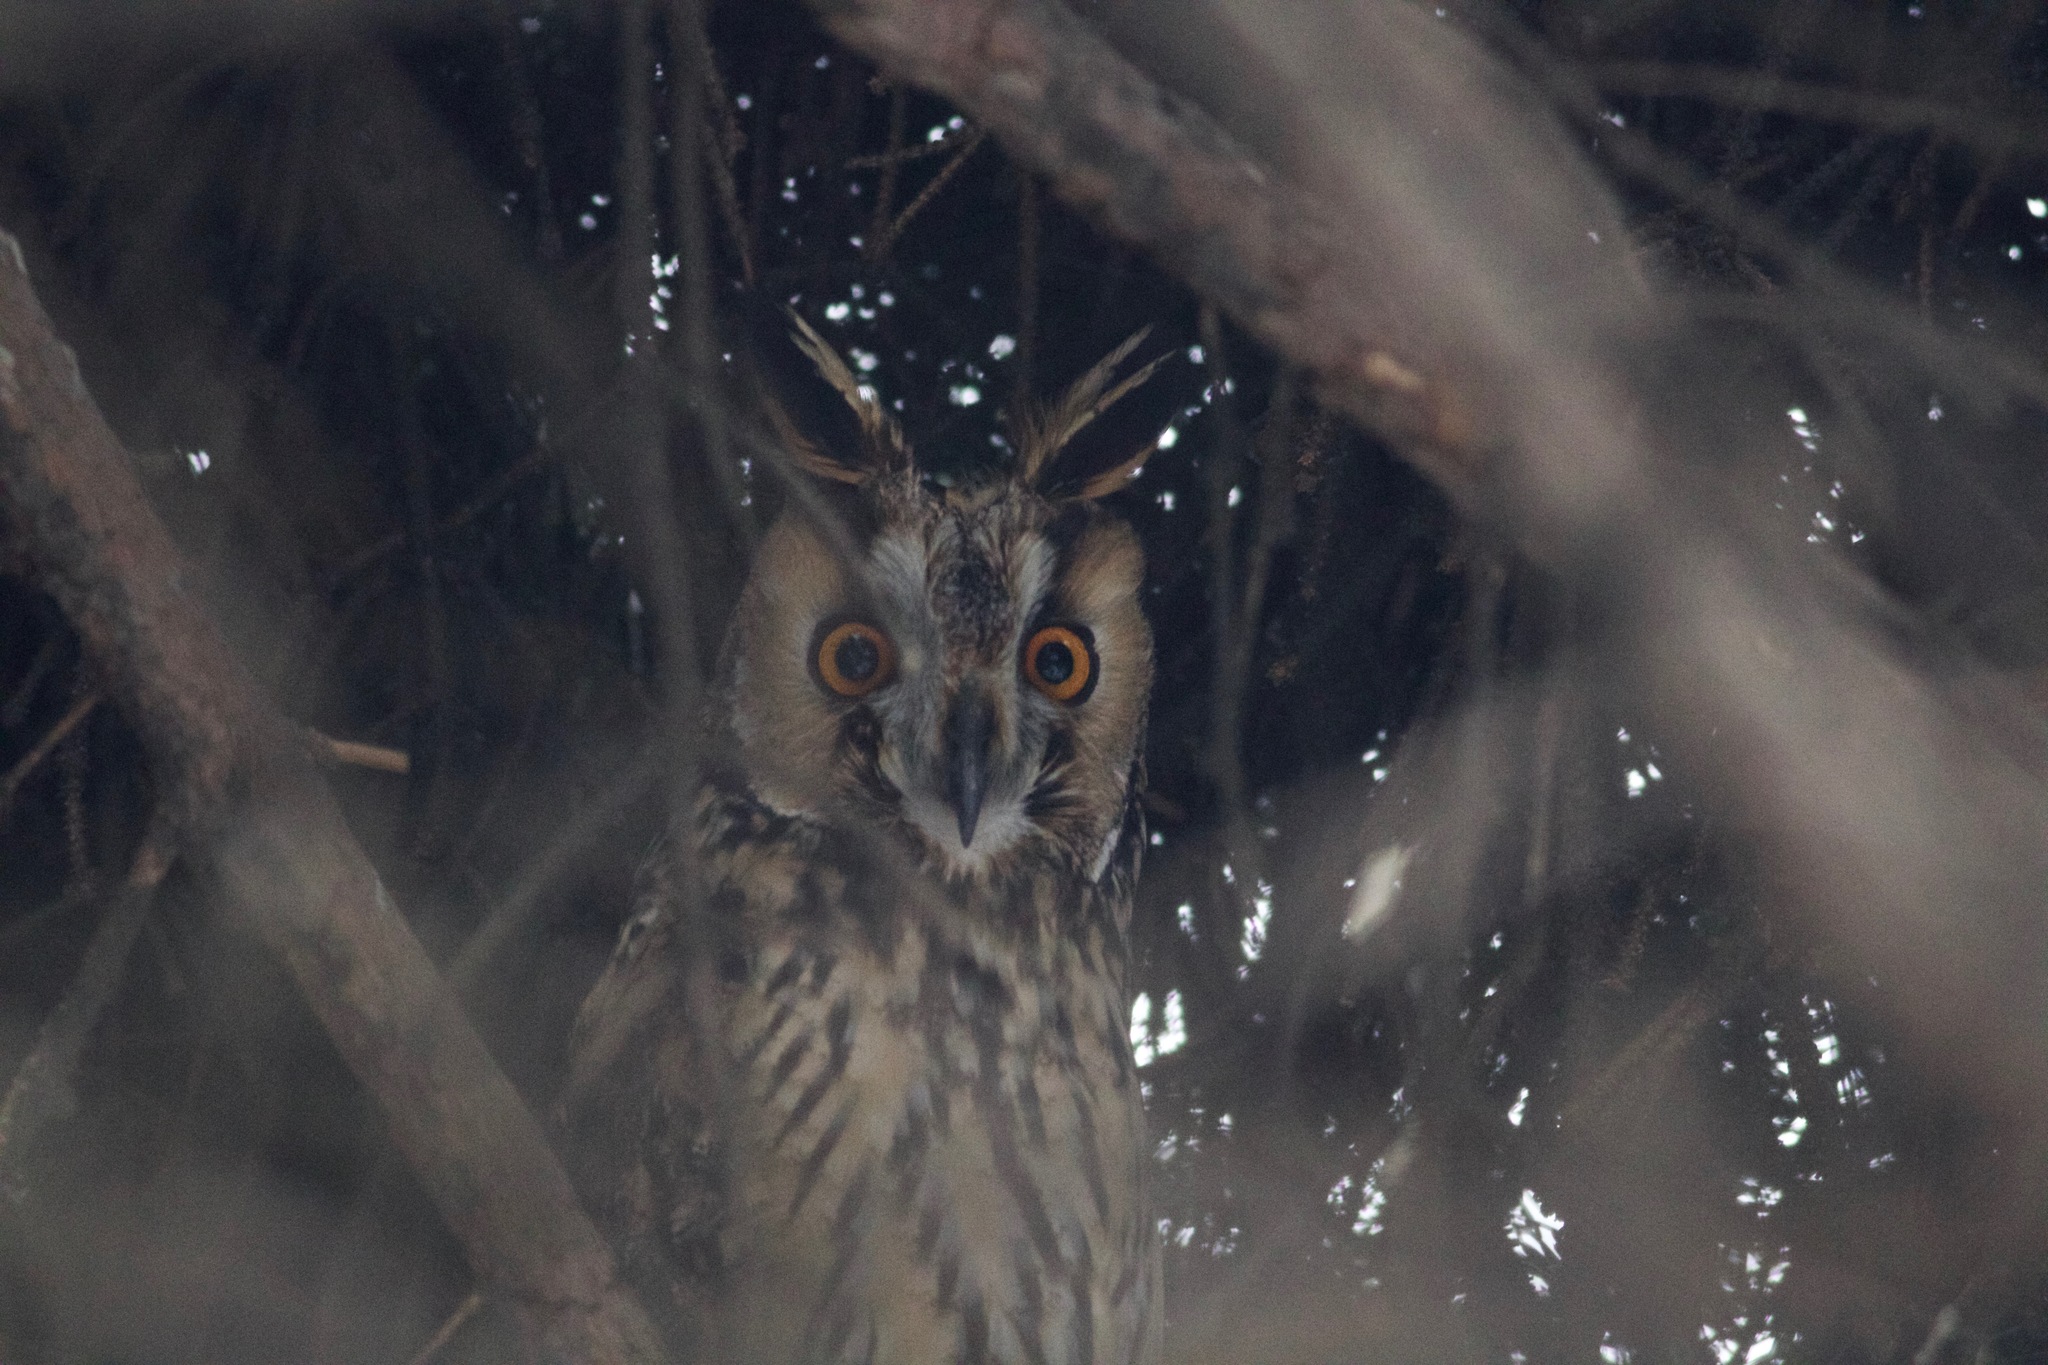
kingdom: Animalia
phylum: Chordata
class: Aves
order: Strigiformes
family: Strigidae
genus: Asio
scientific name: Asio otus
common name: Long-eared owl
